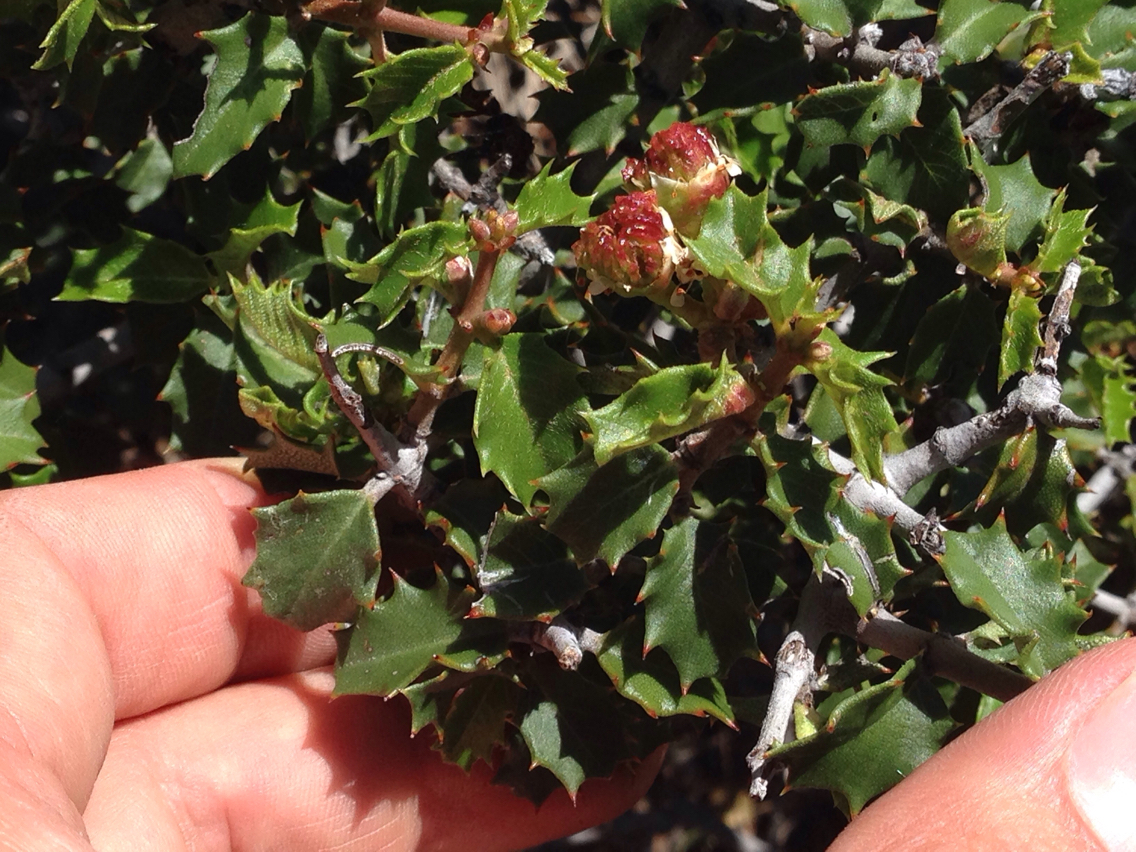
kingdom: Plantae
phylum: Tracheophyta
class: Magnoliopsida
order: Rosales
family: Rhamnaceae
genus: Ceanothus
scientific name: Ceanothus jepsonii
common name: Muskbrush
